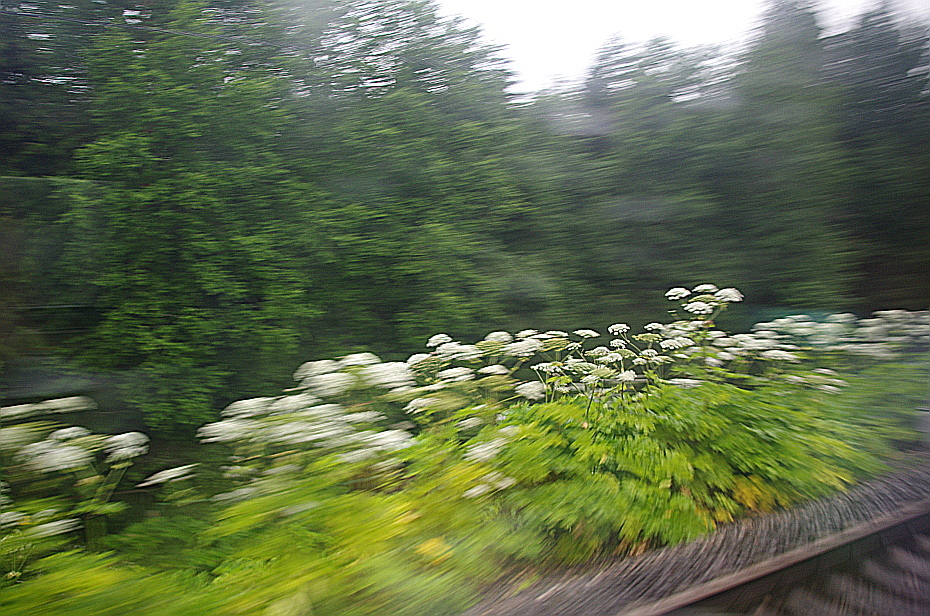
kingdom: Plantae
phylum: Tracheophyta
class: Magnoliopsida
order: Apiales
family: Apiaceae
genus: Heracleum
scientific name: Heracleum sosnowskyi
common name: Sosnowsky's hogweed
